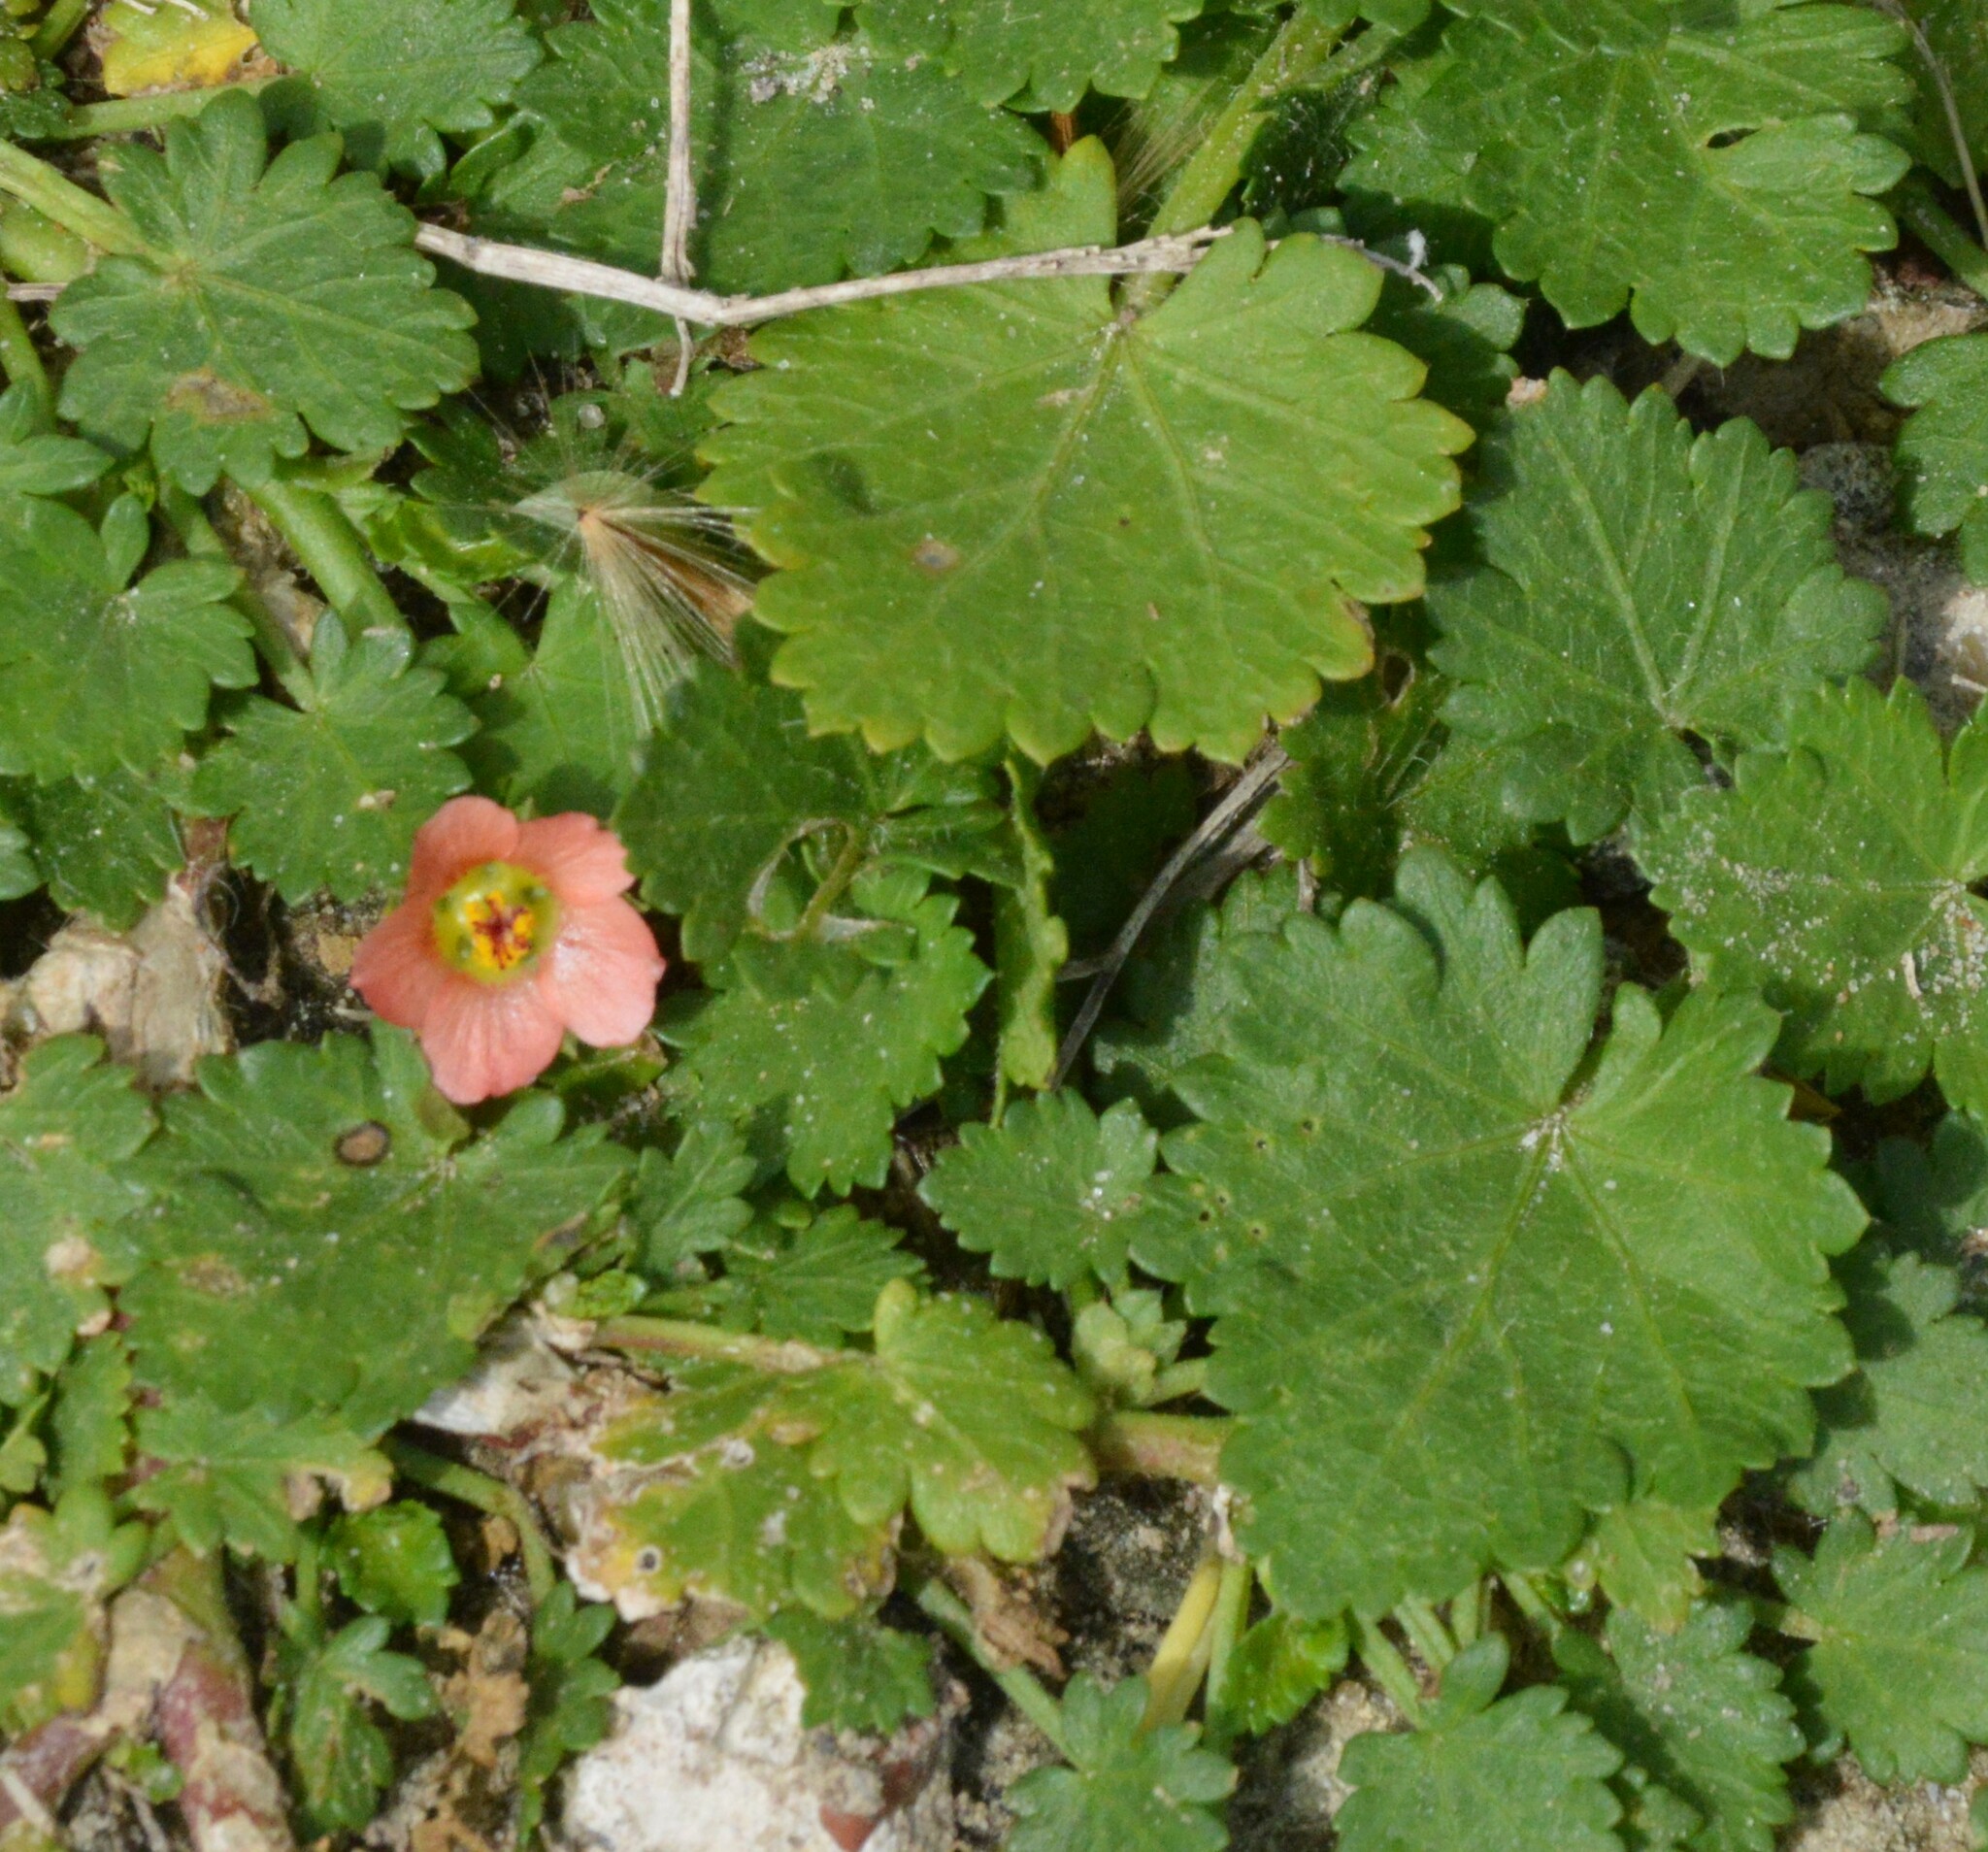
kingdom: Plantae
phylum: Tracheophyta
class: Magnoliopsida
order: Malvales
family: Malvaceae
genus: Modiola
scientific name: Modiola caroliniana
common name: Carolina bristlemallow
